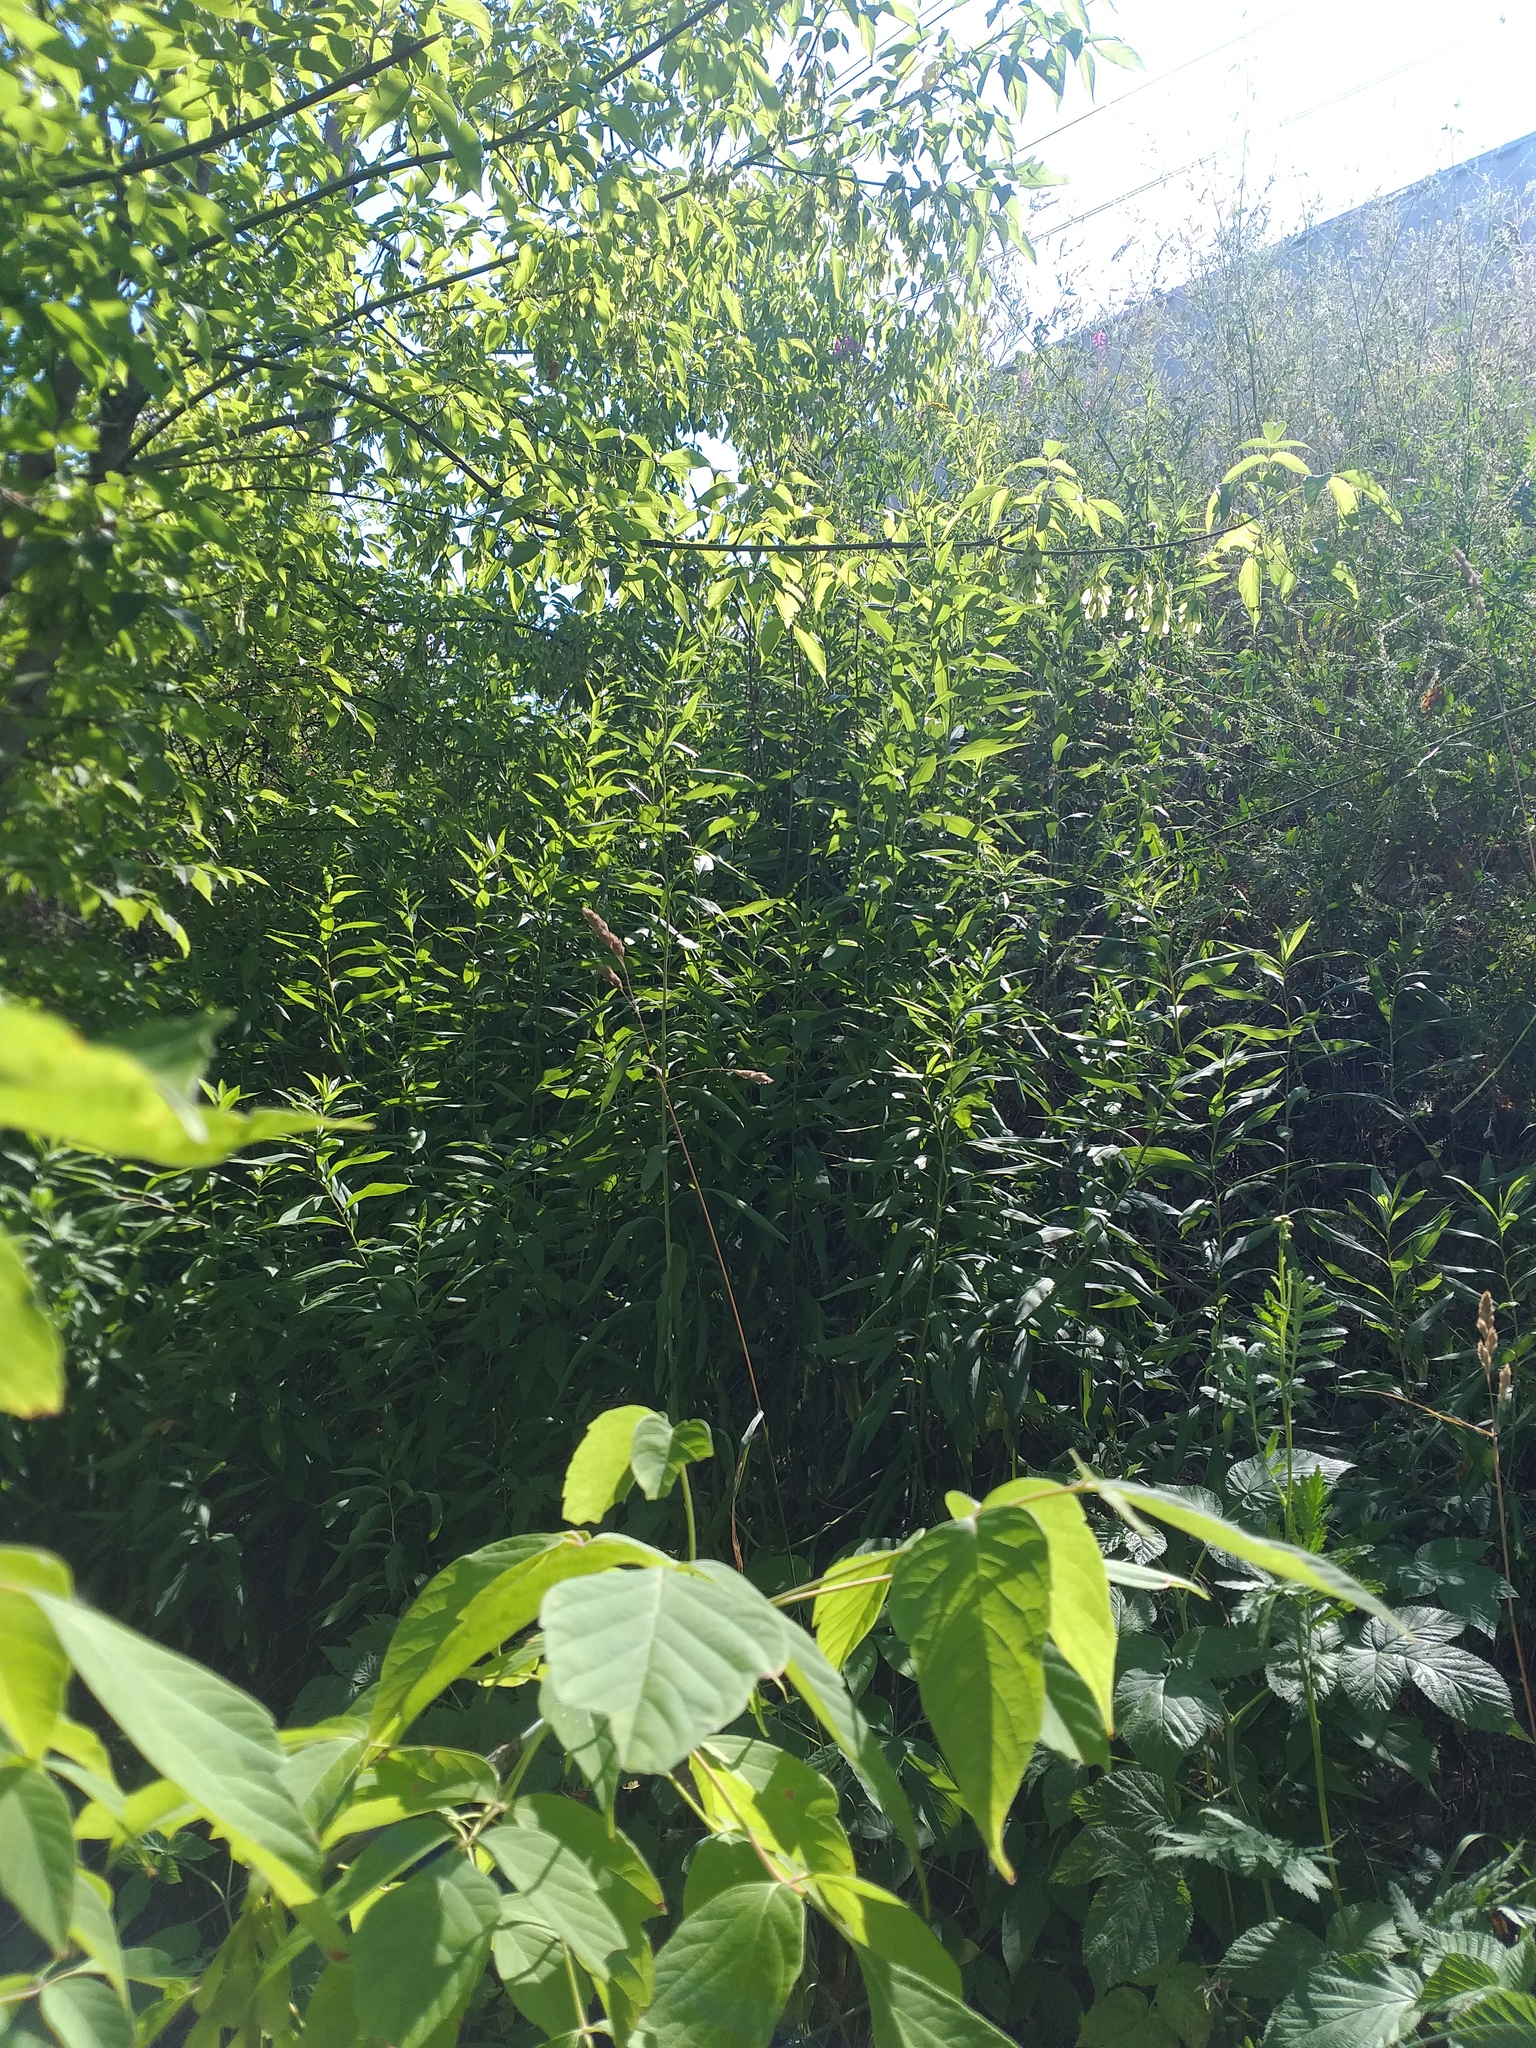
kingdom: Plantae
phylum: Tracheophyta
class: Magnoliopsida
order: Asterales
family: Asteraceae
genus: Solidago
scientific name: Solidago gigantea
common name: Giant goldenrod
